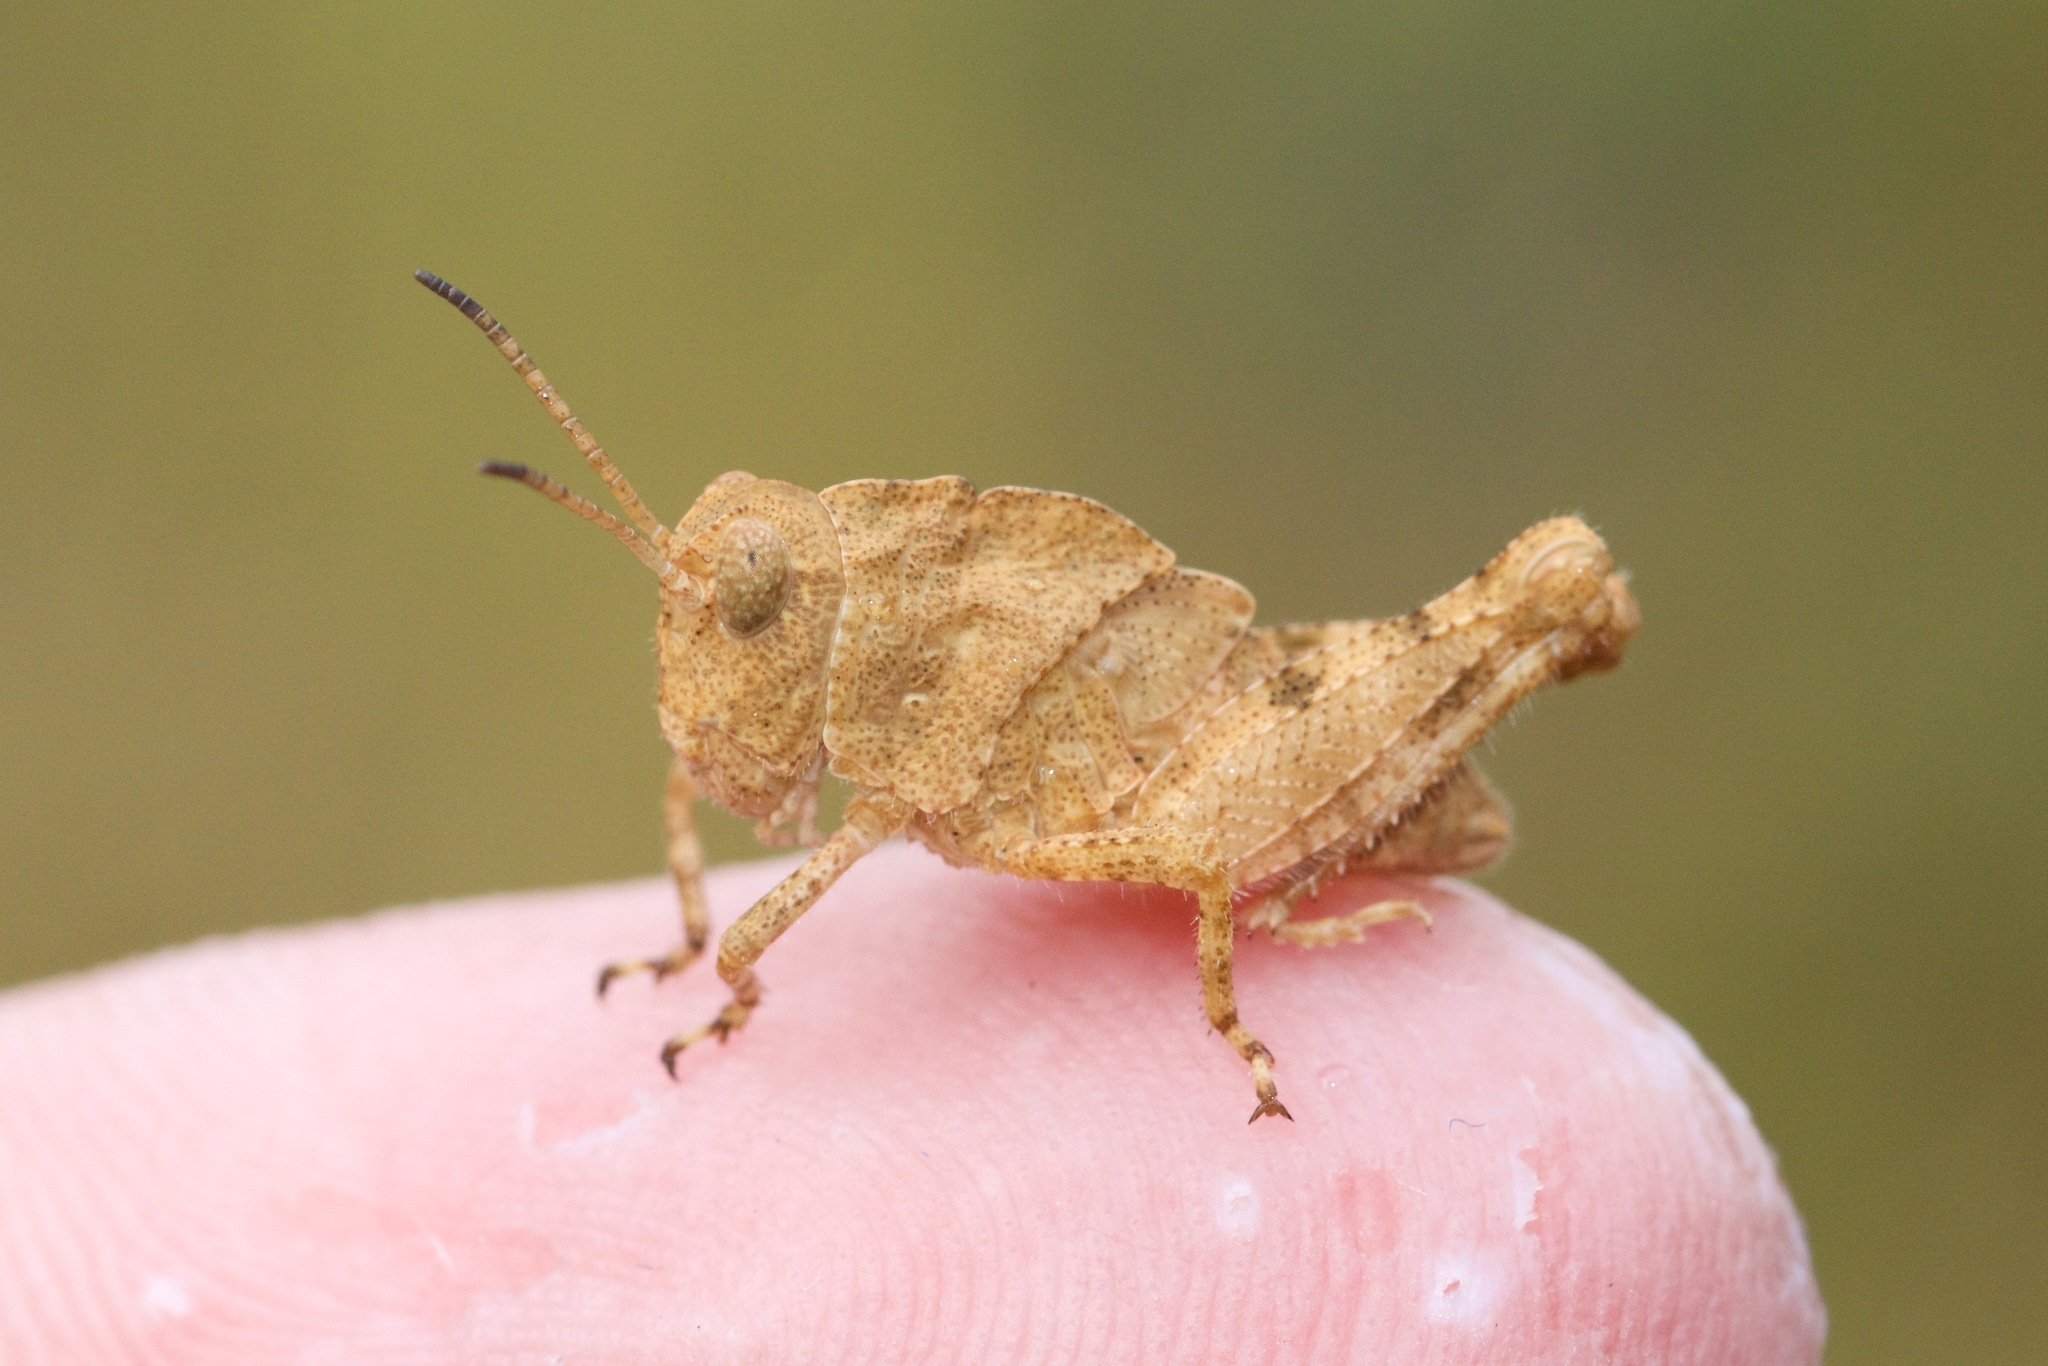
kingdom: Animalia
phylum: Arthropoda
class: Insecta
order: Orthoptera
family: Acrididae
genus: Dissosteira
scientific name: Dissosteira carolina
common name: Carolina grasshopper
